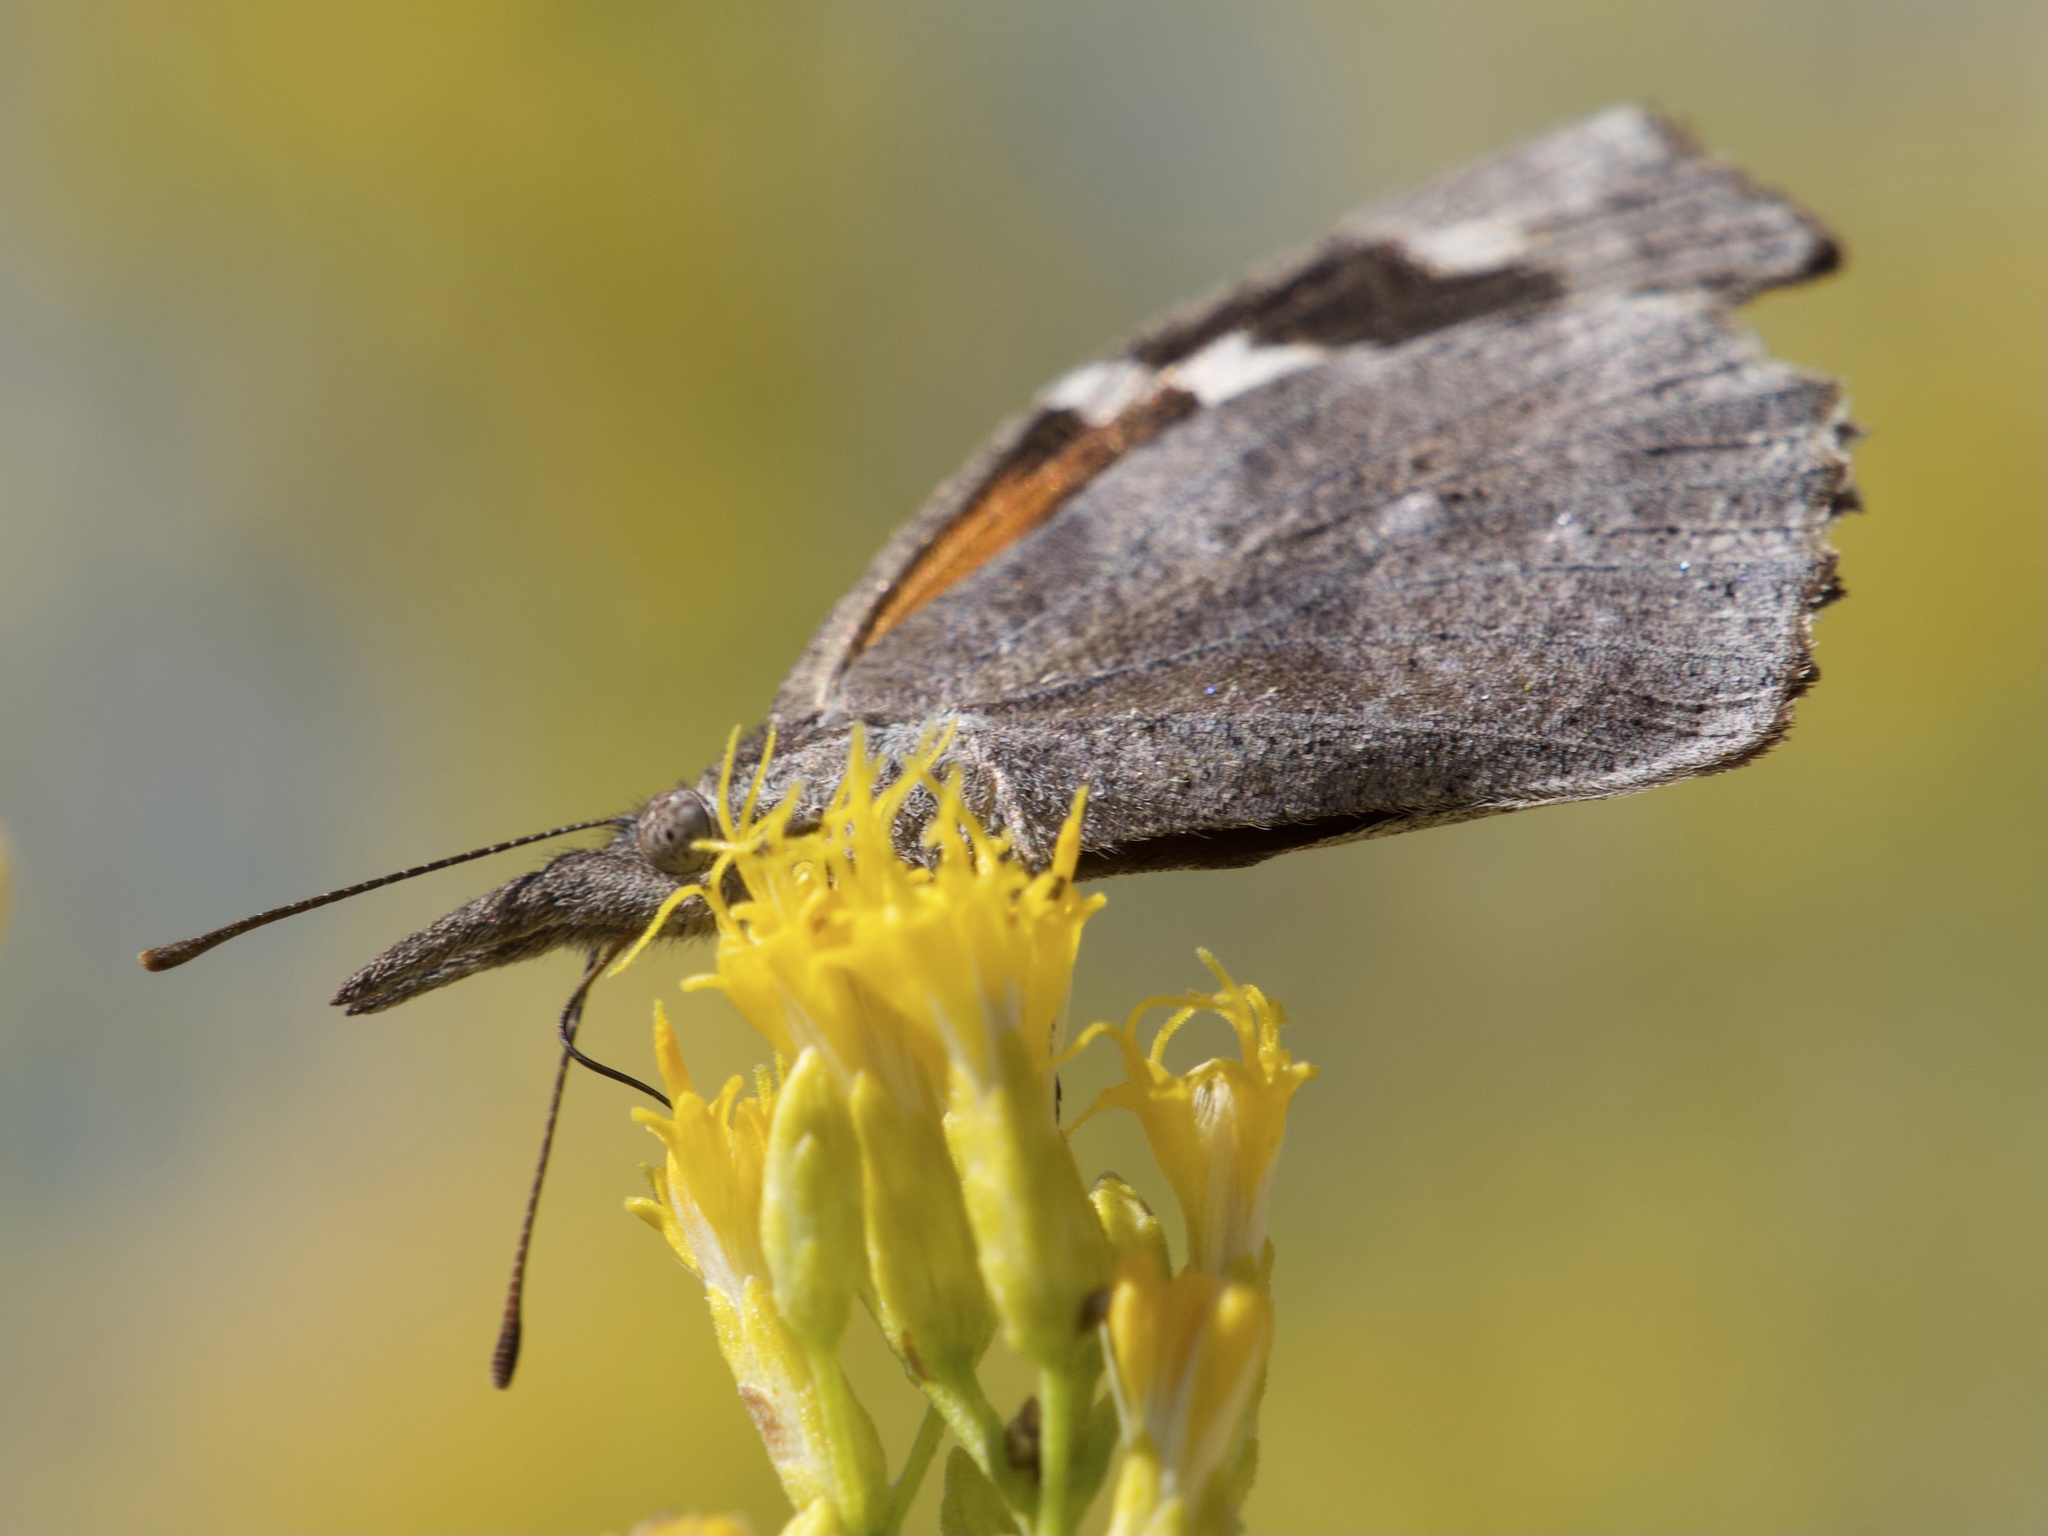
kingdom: Animalia
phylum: Arthropoda
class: Insecta
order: Lepidoptera
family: Nymphalidae
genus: Libytheana
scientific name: Libytheana carinenta
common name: American snout
